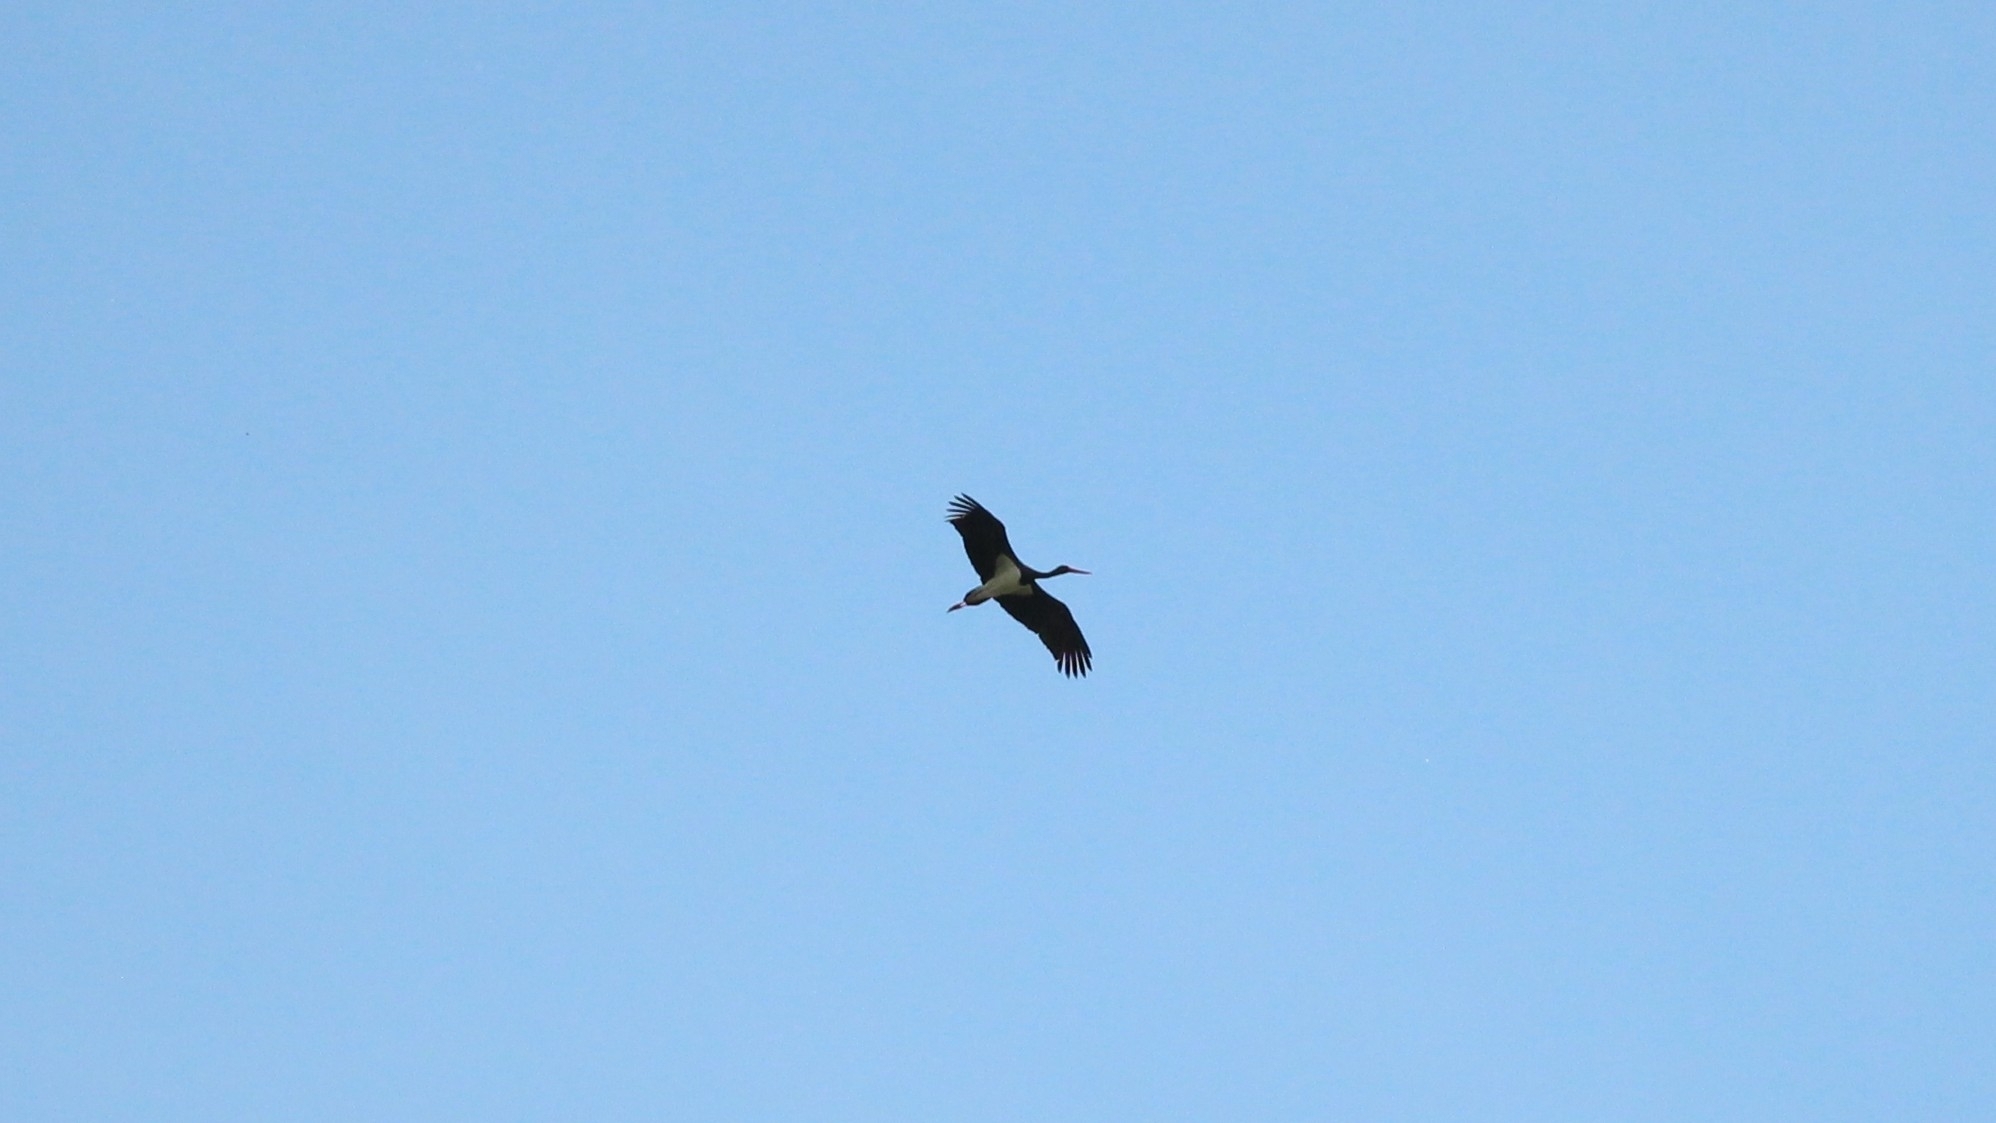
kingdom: Animalia
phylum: Chordata
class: Aves
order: Ciconiiformes
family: Ciconiidae
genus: Ciconia
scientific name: Ciconia nigra
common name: Black stork
